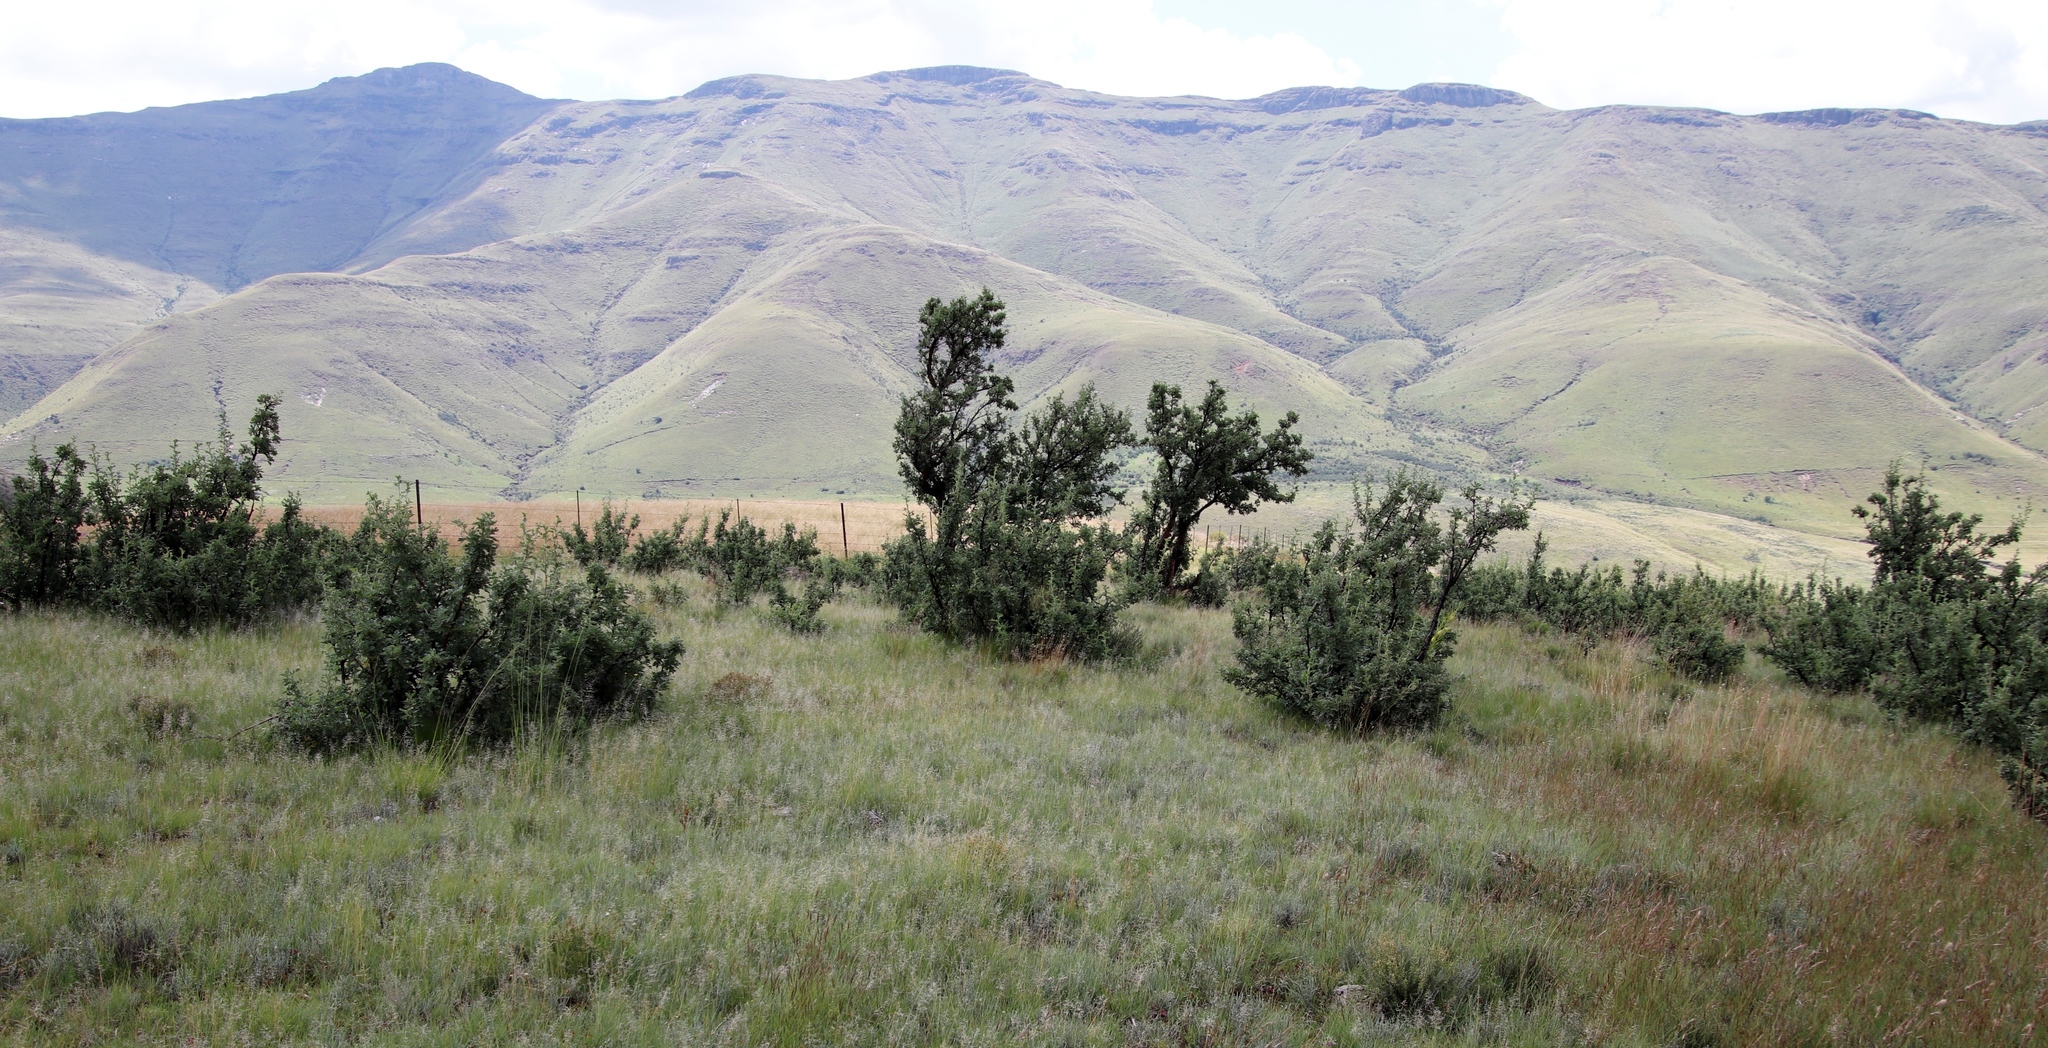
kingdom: Plantae
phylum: Tracheophyta
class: Magnoliopsida
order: Rosales
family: Rosaceae
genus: Leucosidea
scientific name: Leucosidea sericea
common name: Oldwood
